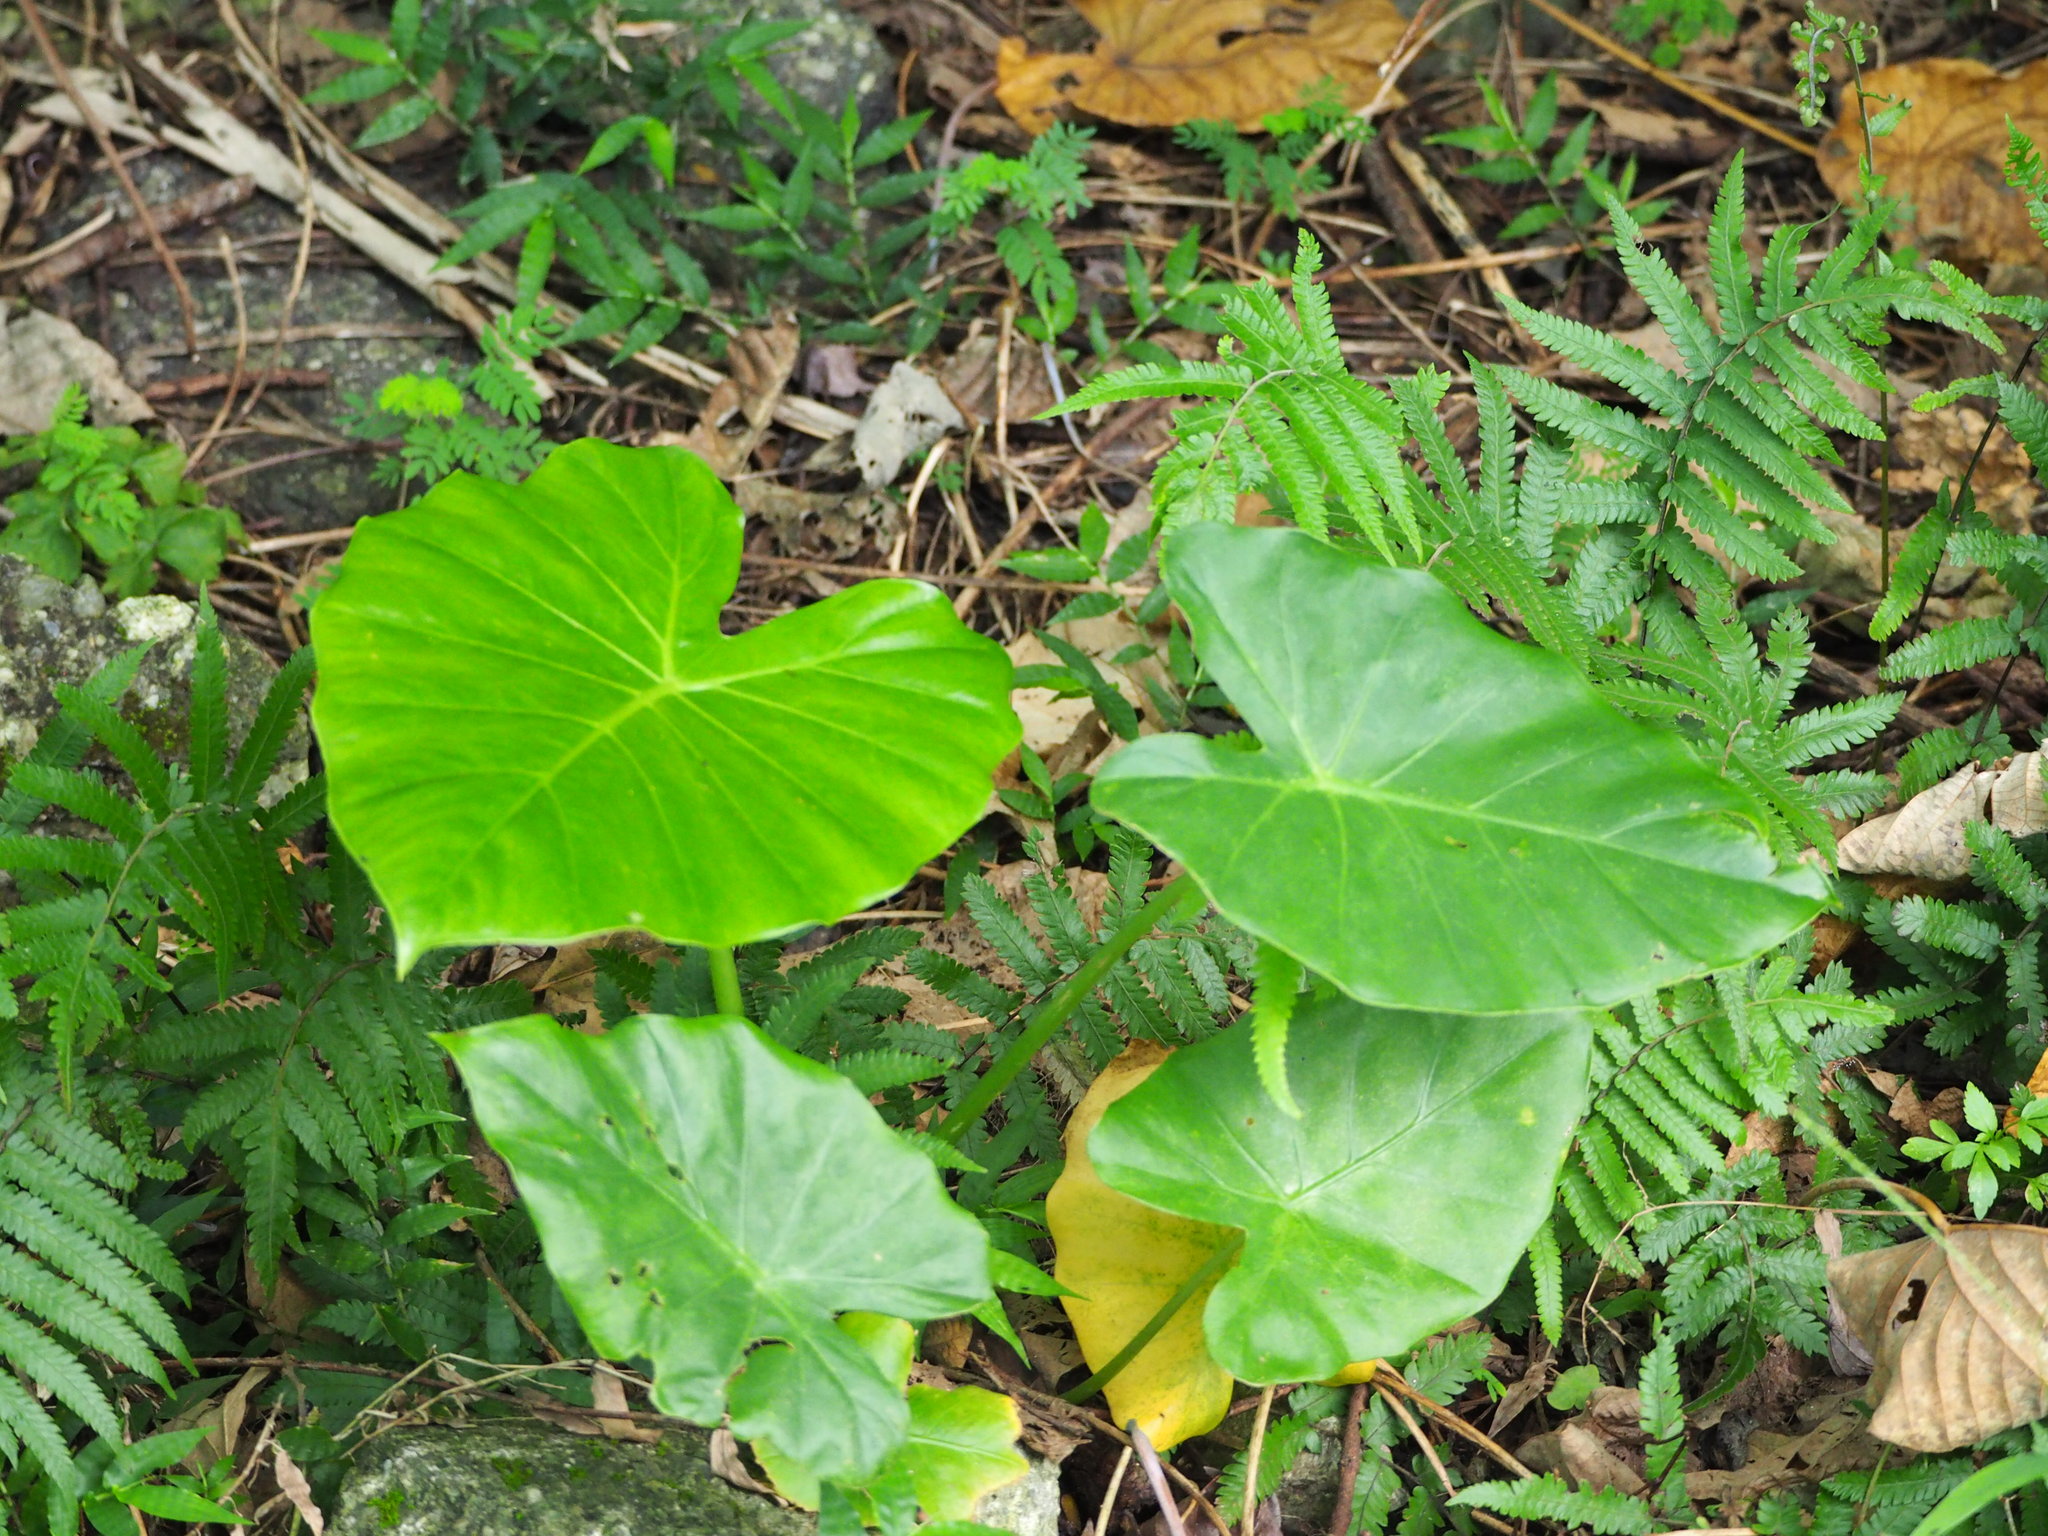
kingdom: Plantae
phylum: Tracheophyta
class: Liliopsida
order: Alismatales
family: Araceae
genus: Alocasia
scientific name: Alocasia odora
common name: Asian taro
